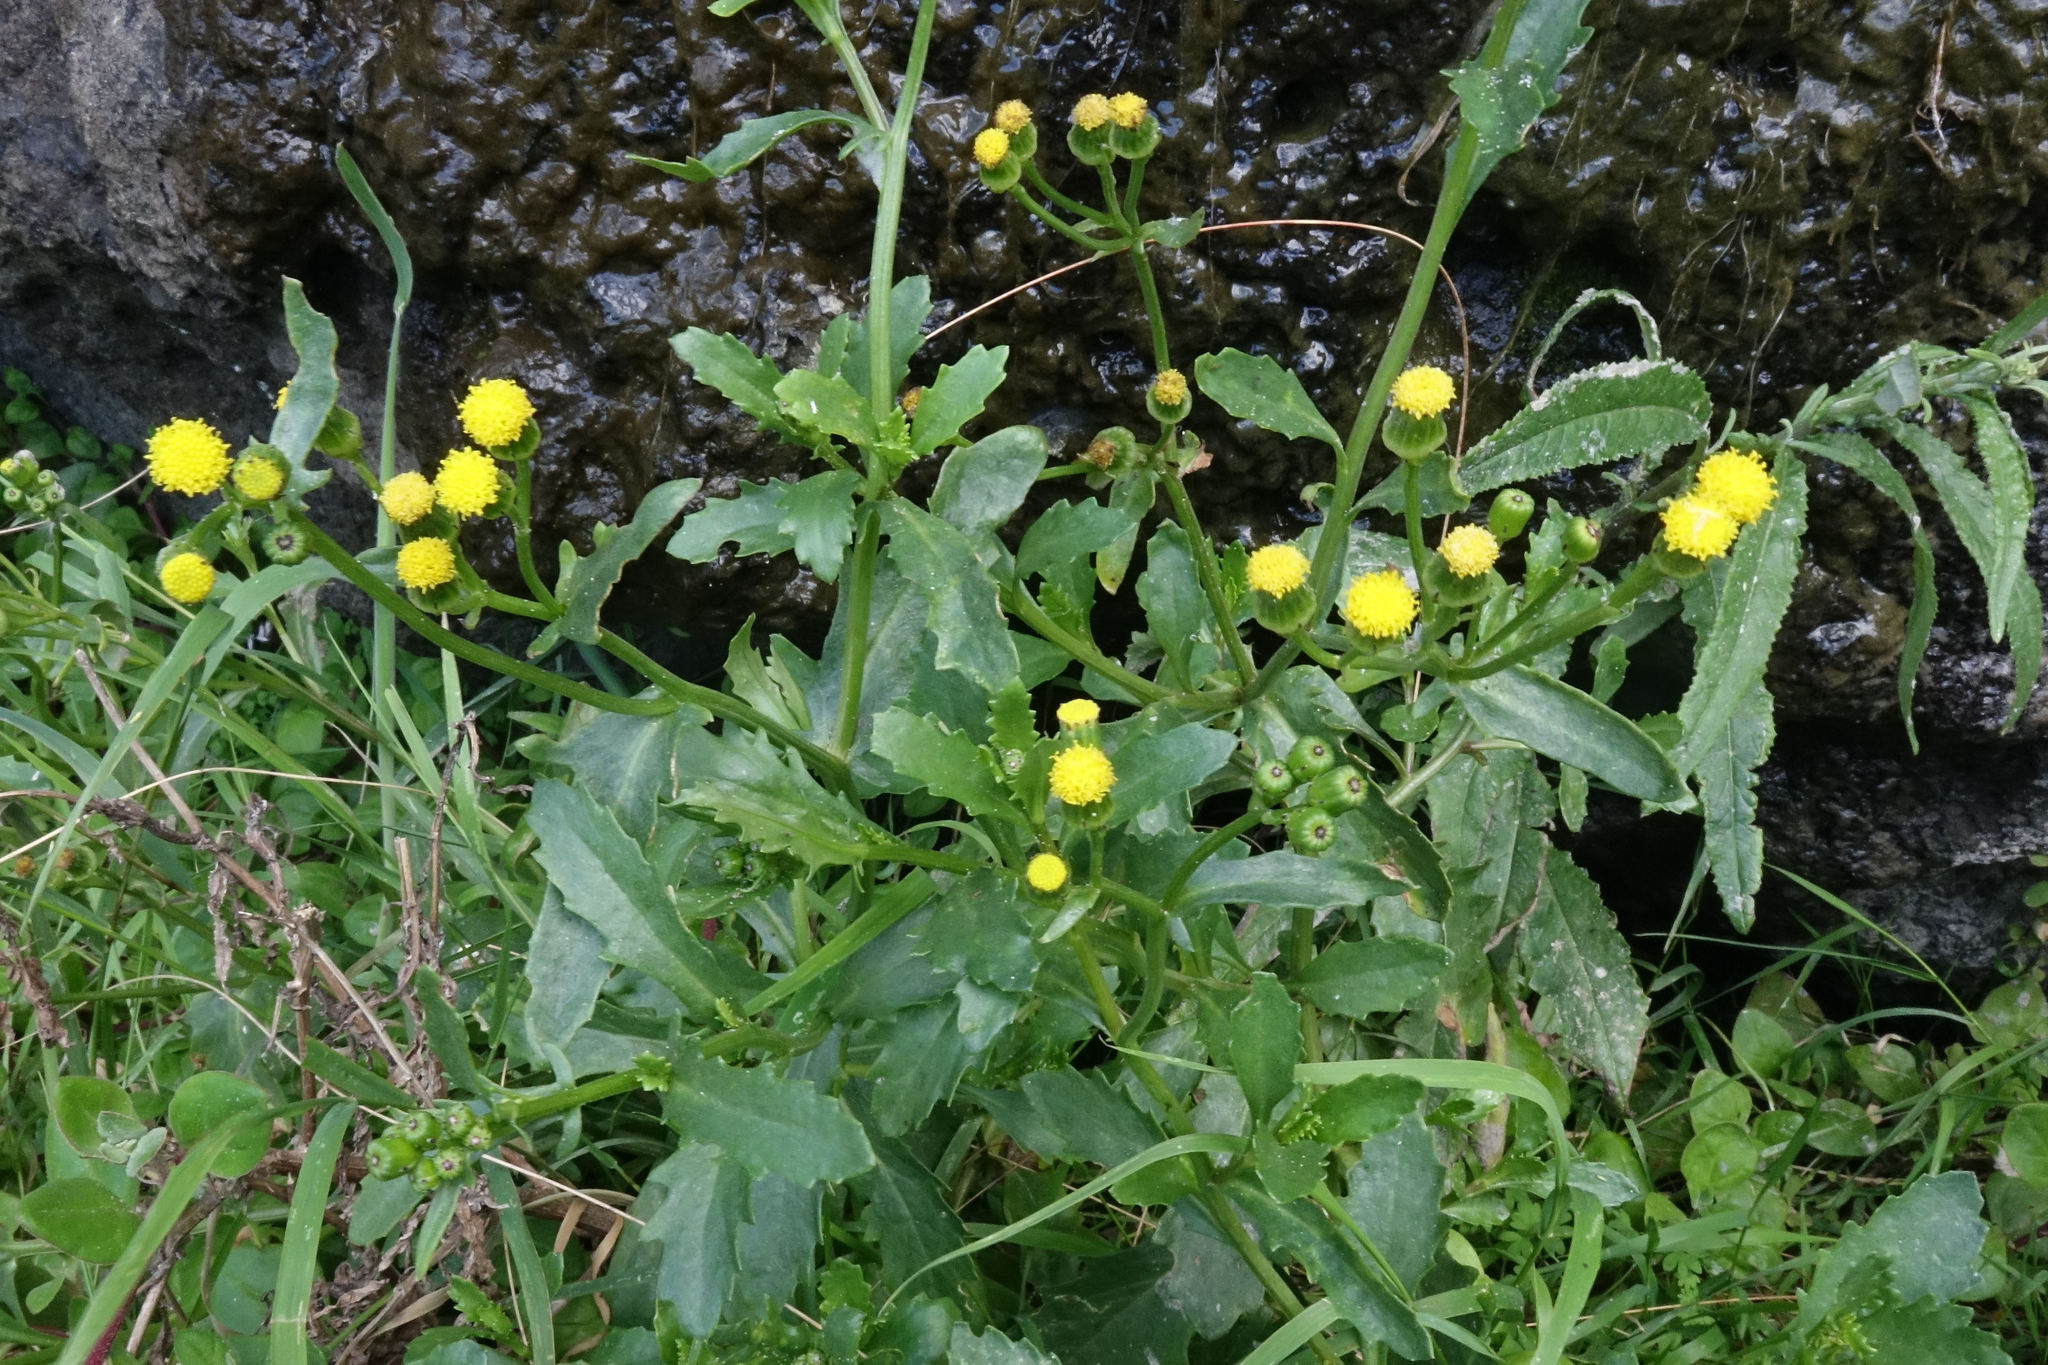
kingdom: Plantae
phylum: Tracheophyta
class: Magnoliopsida
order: Asterales
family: Asteraceae
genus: Senecio
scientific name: Senecio matatini
